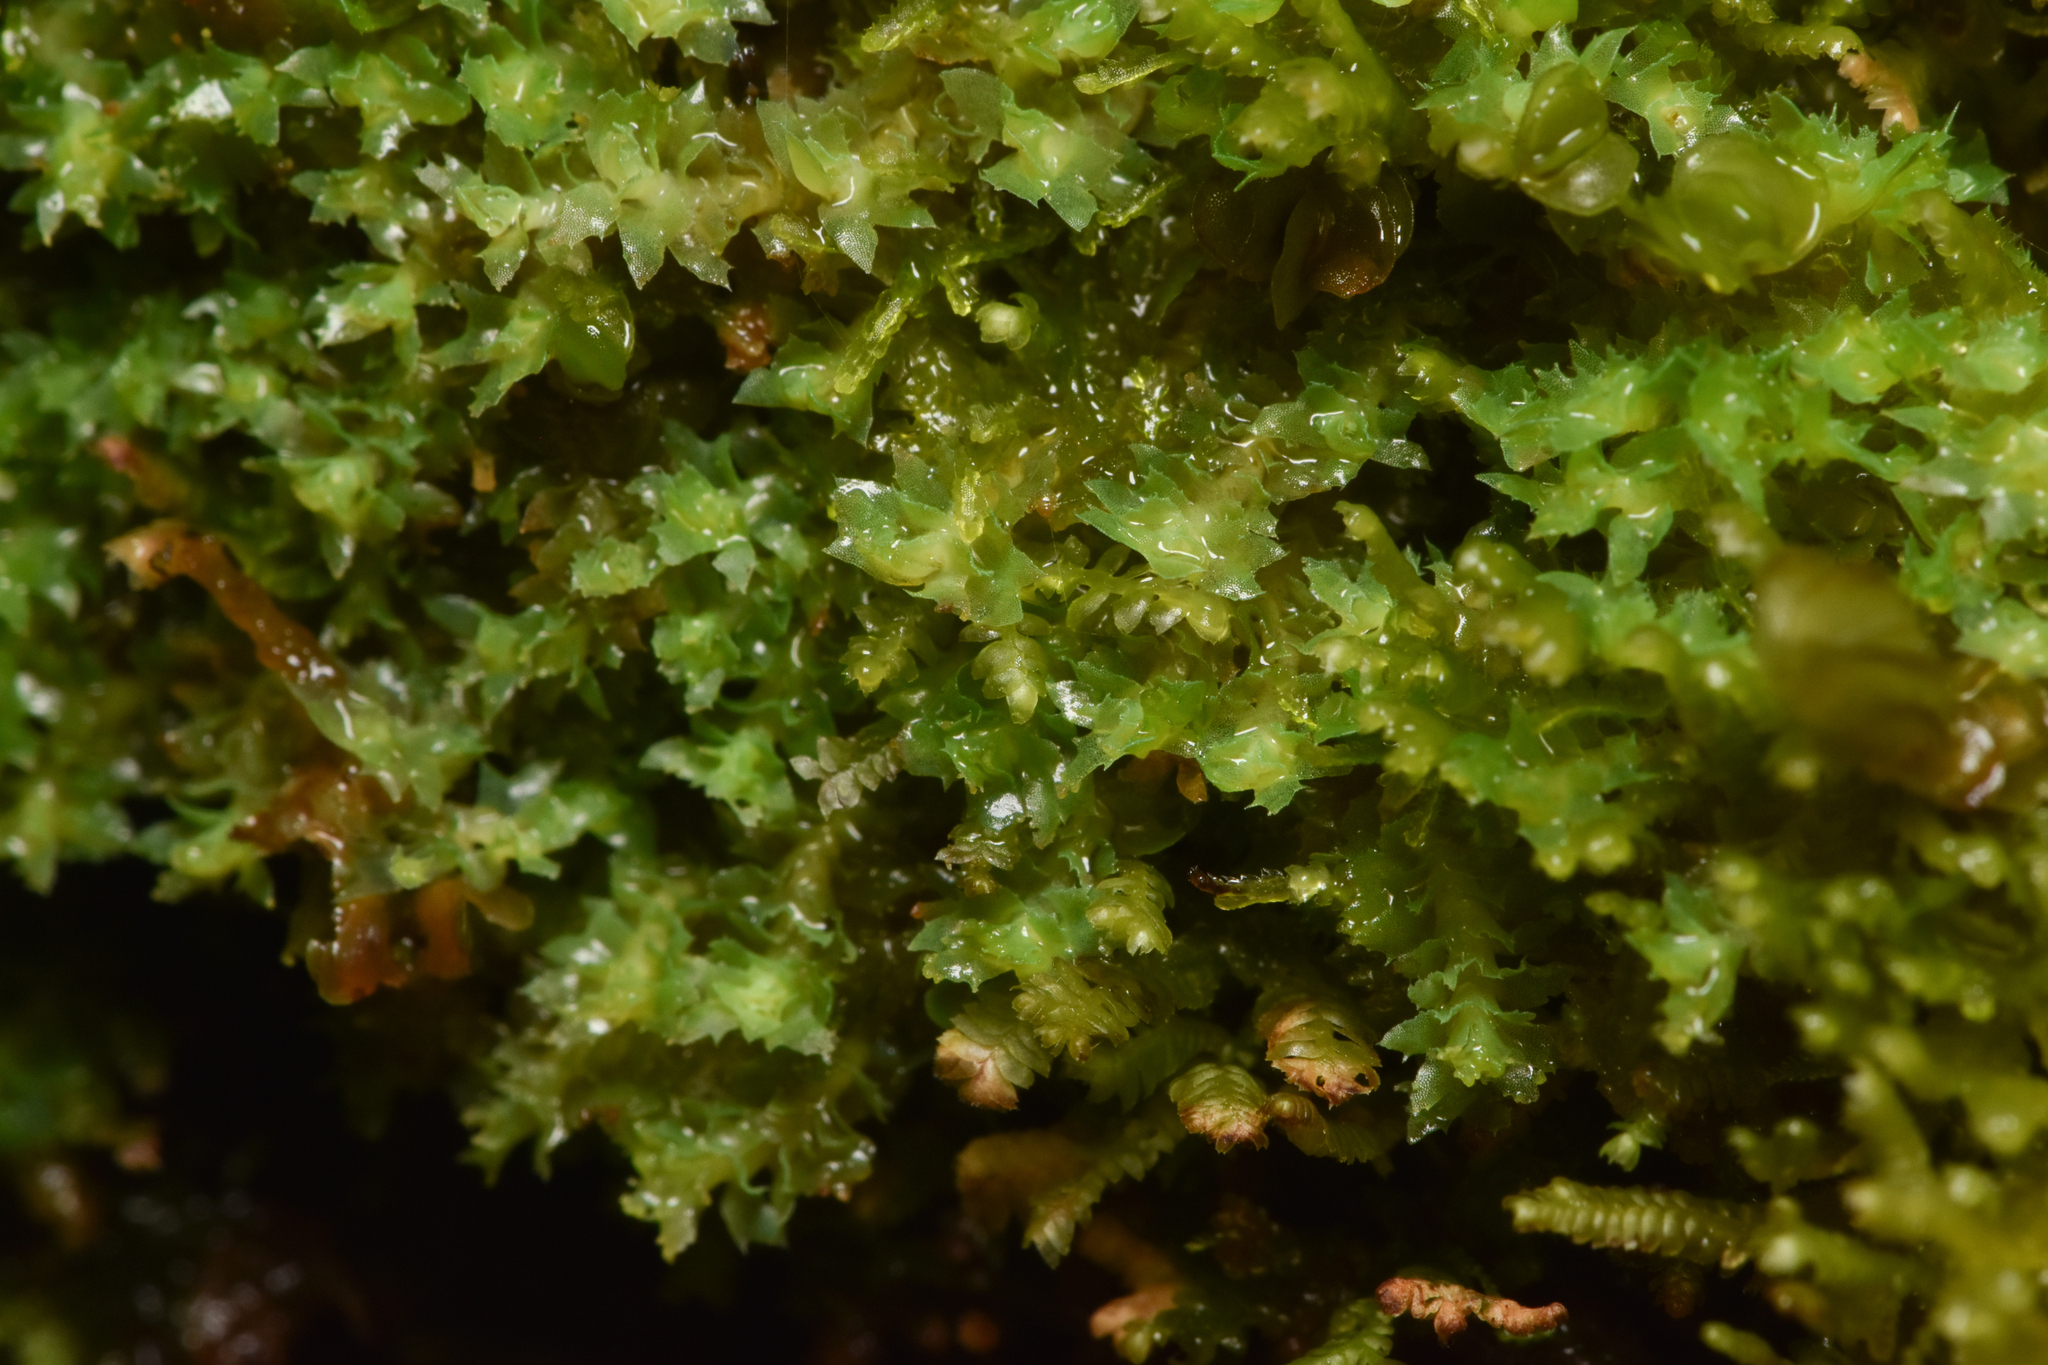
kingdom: Plantae
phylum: Marchantiophyta
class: Jungermanniopsida
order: Jungermanniales
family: Scapaniaceae
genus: Schistochilopsis
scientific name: Schistochilopsis incisa
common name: Jagged notchwort
